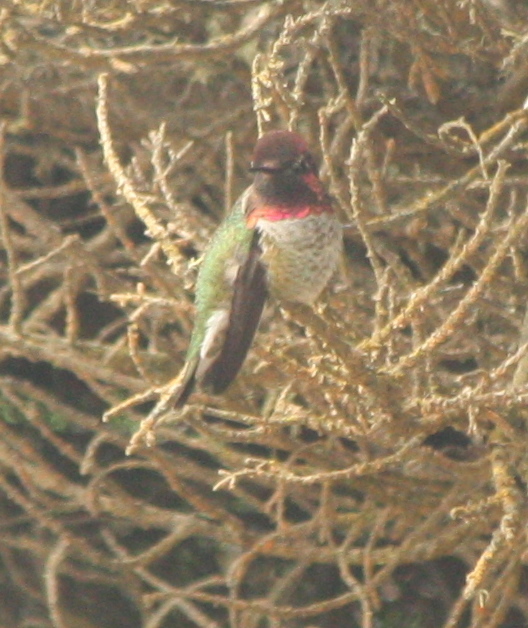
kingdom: Animalia
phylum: Chordata
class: Aves
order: Apodiformes
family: Trochilidae
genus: Calypte
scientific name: Calypte anna
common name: Anna's hummingbird
